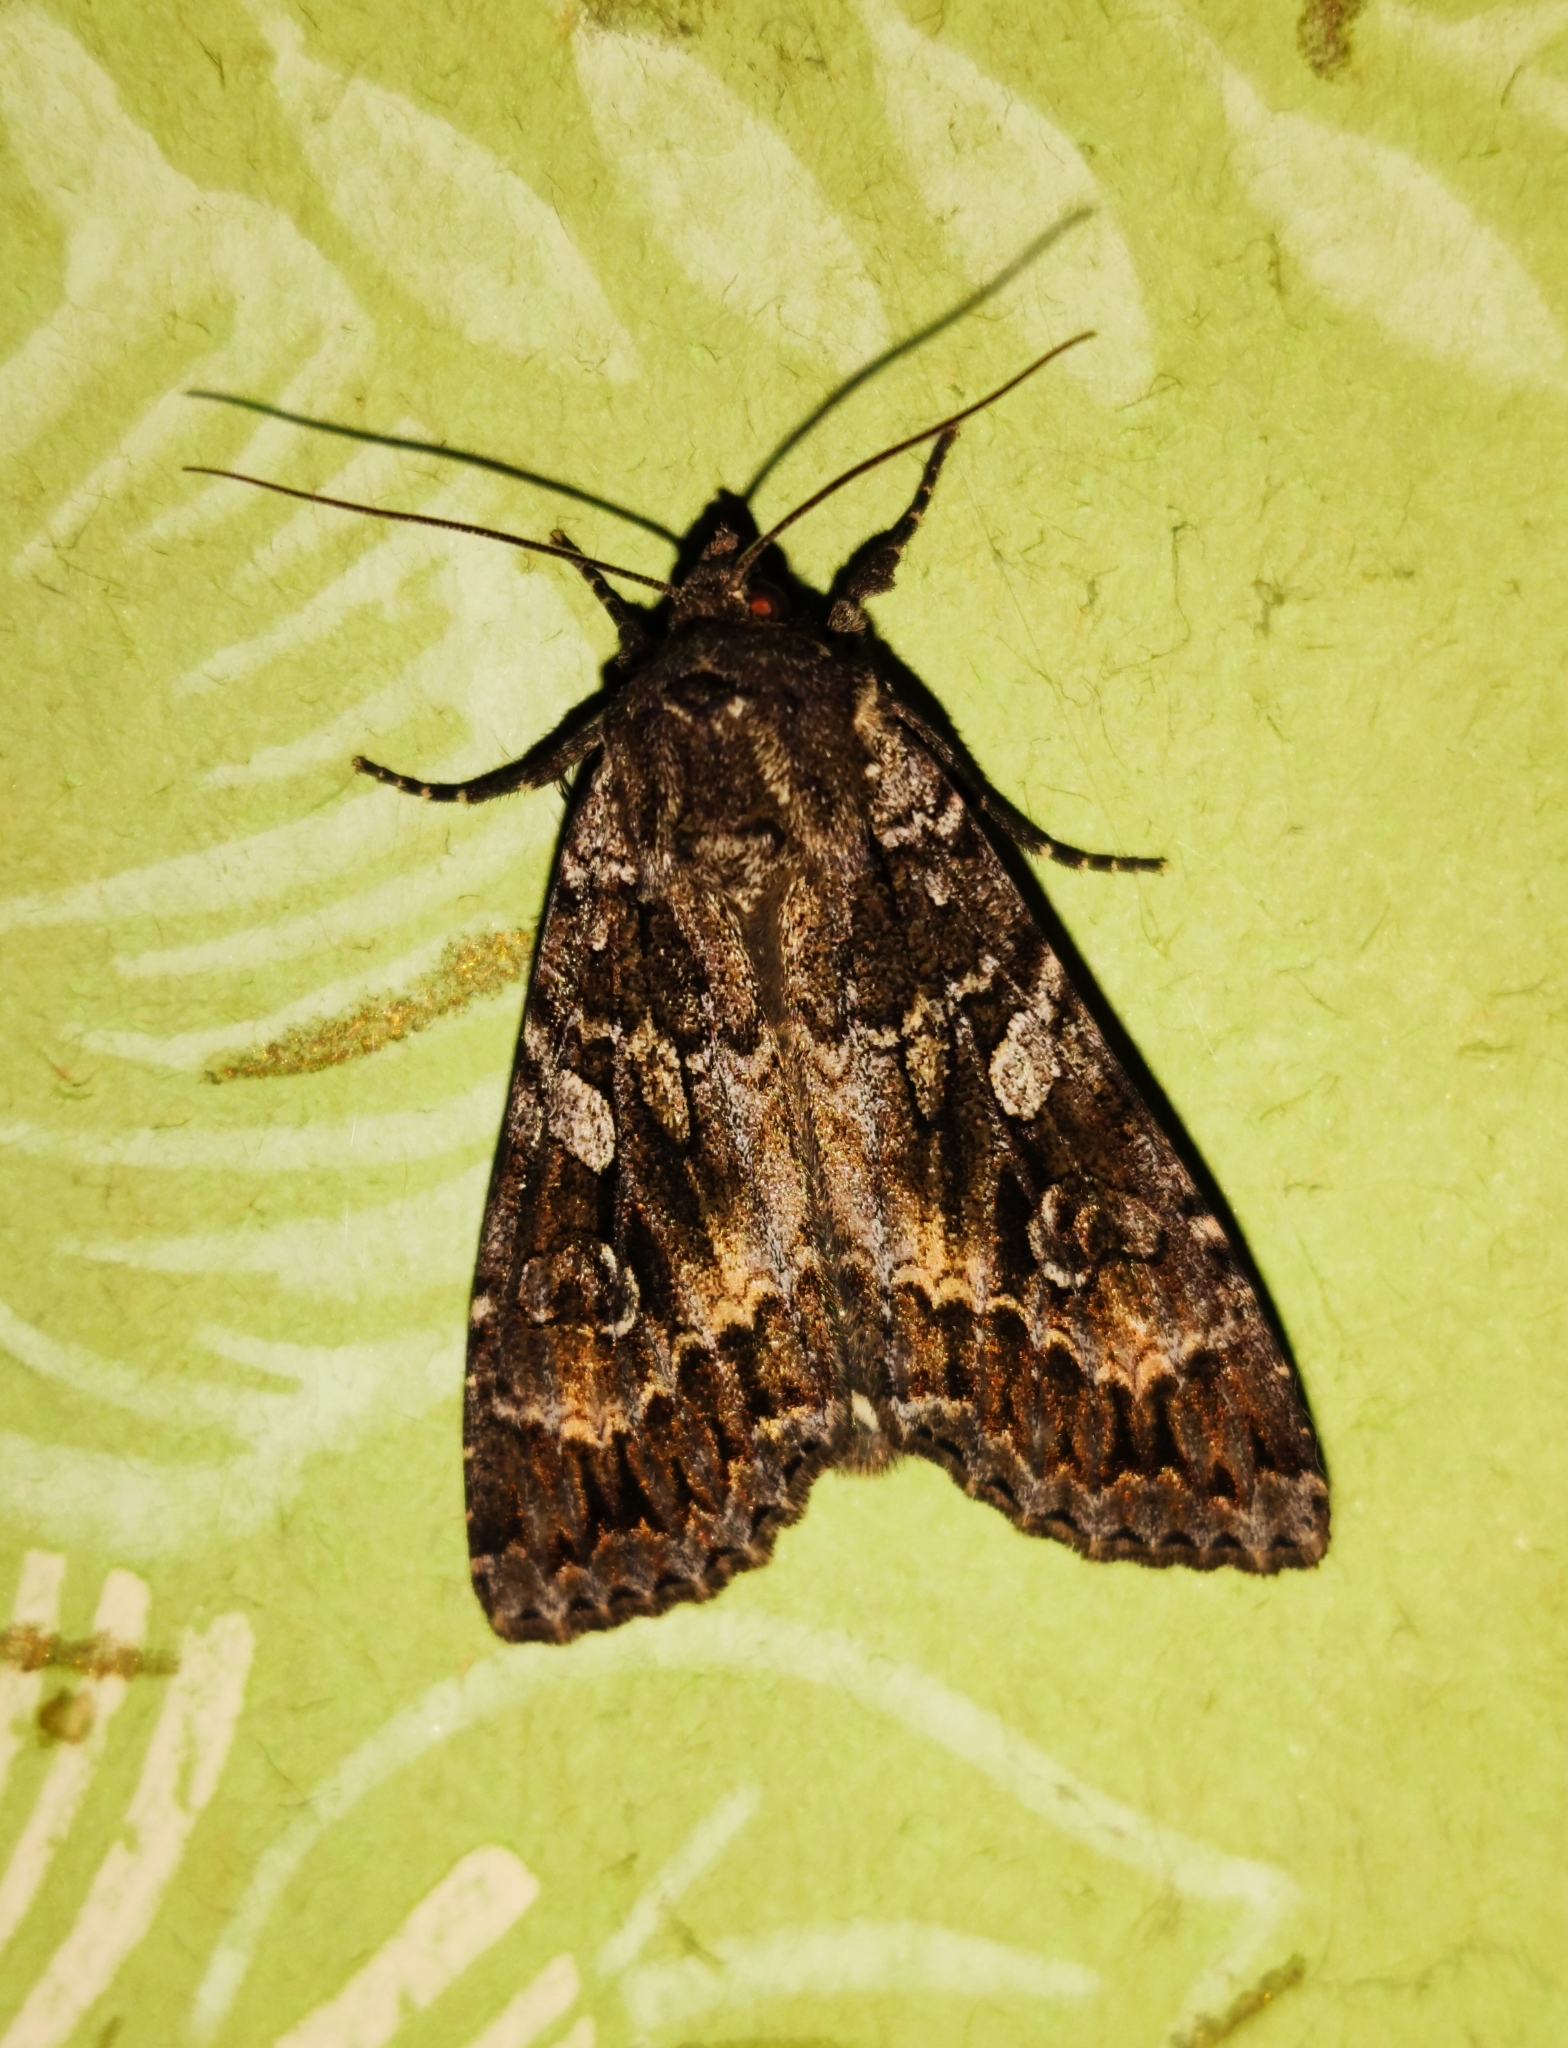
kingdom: Animalia
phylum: Arthropoda
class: Insecta
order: Lepidoptera
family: Noctuidae
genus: Eurois
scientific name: Eurois occulta
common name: Great brocade
